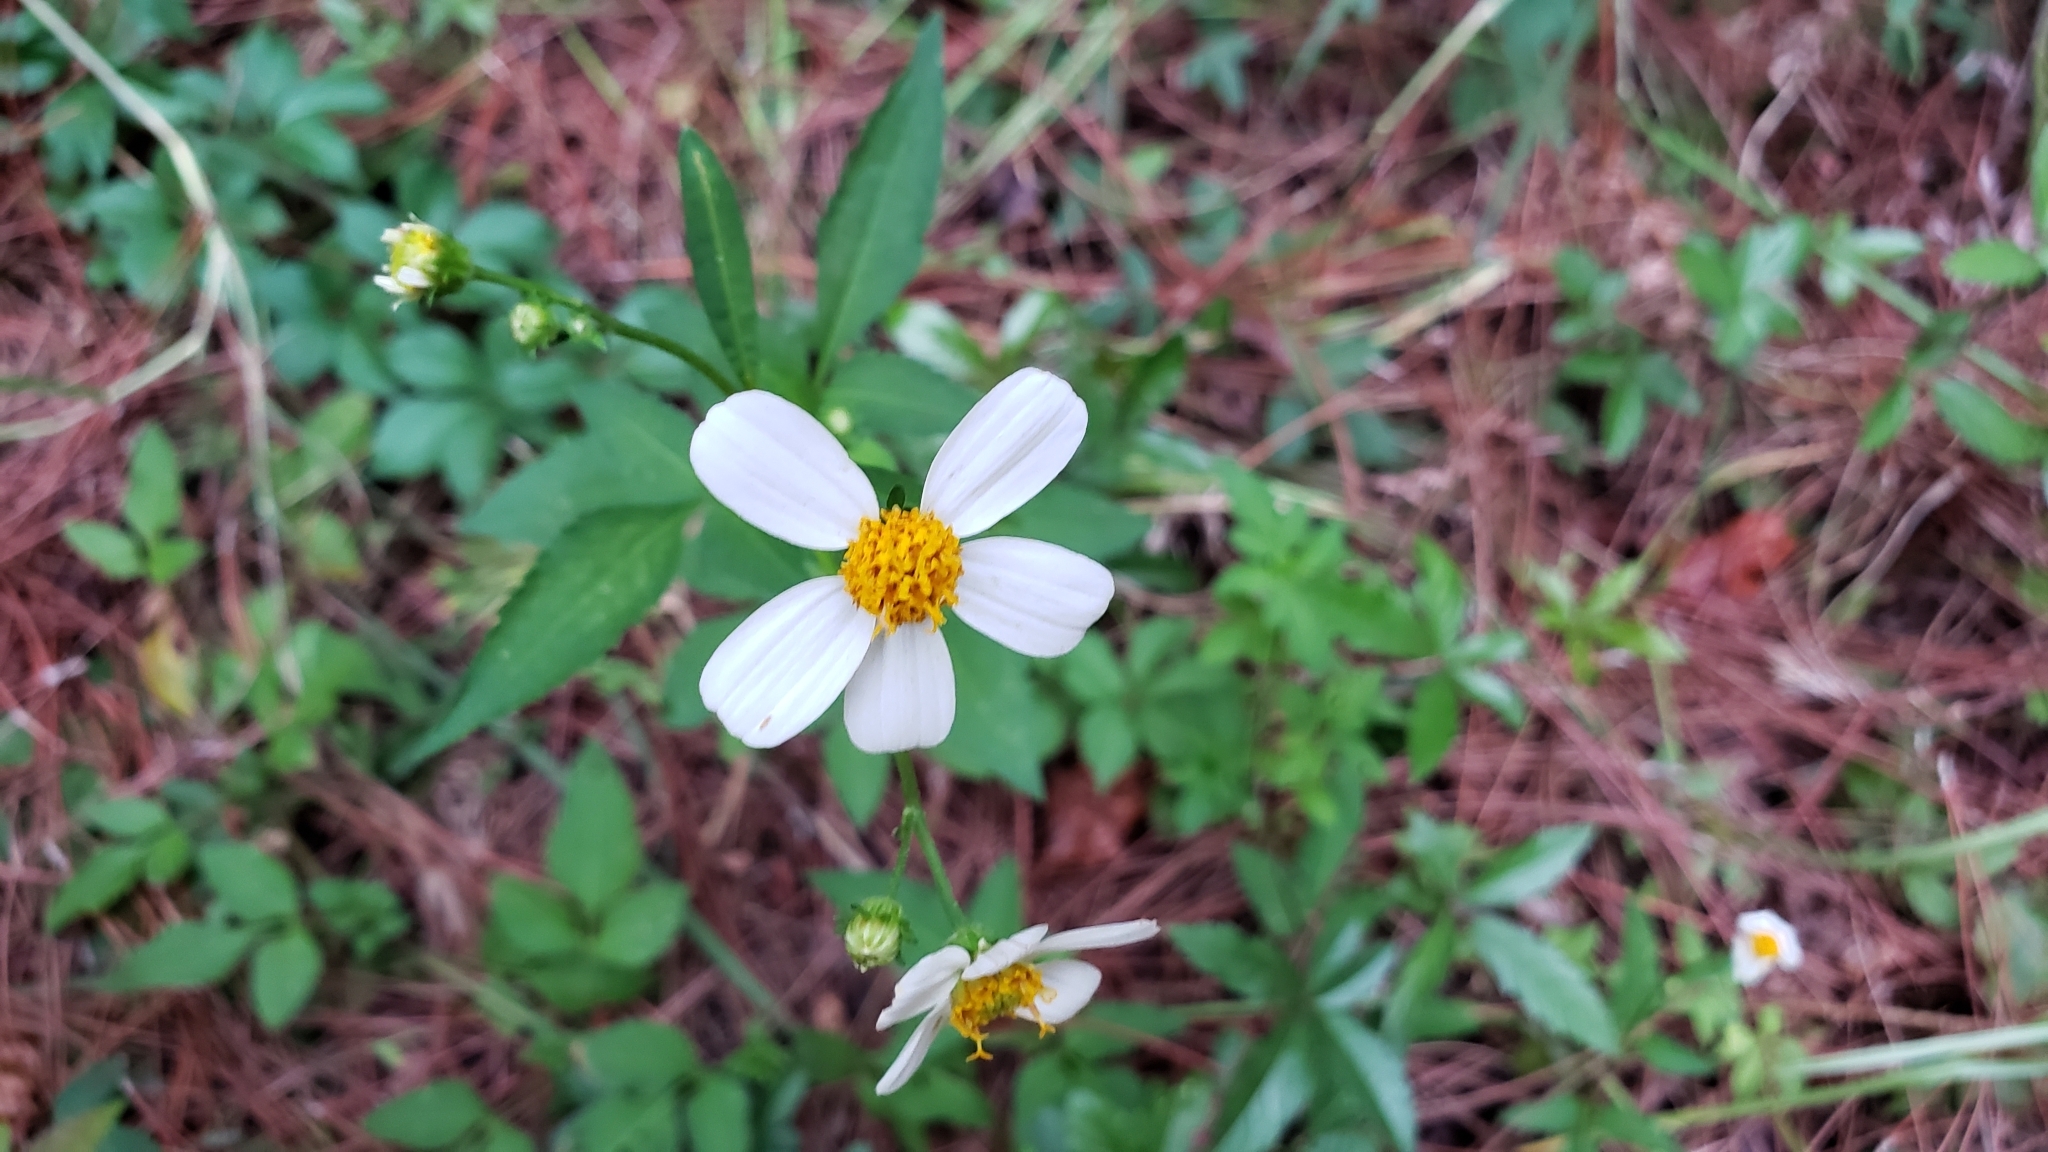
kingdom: Plantae
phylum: Tracheophyta
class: Magnoliopsida
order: Asterales
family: Asteraceae
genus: Bidens
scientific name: Bidens alba
